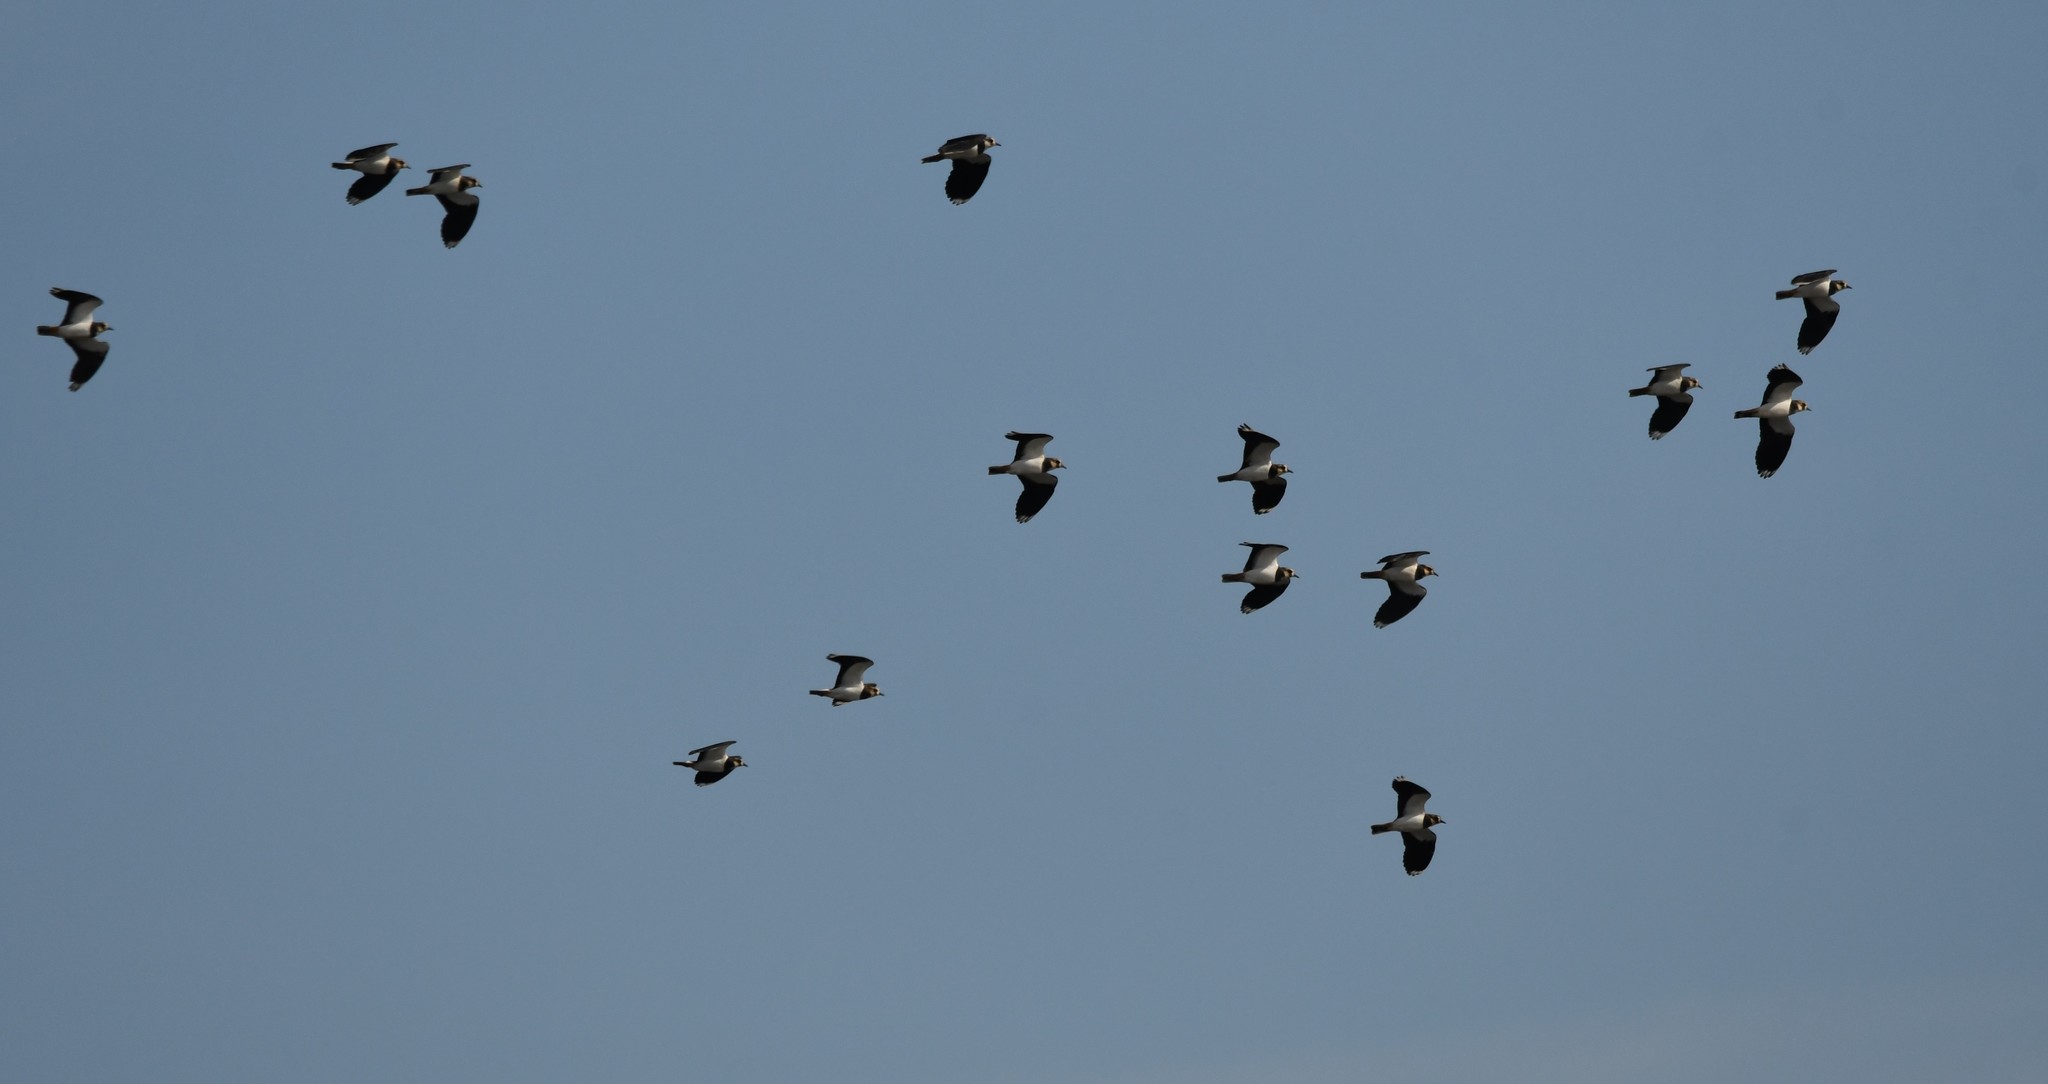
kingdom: Animalia
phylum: Chordata
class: Aves
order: Charadriiformes
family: Charadriidae
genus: Vanellus
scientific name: Vanellus vanellus
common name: Northern lapwing
